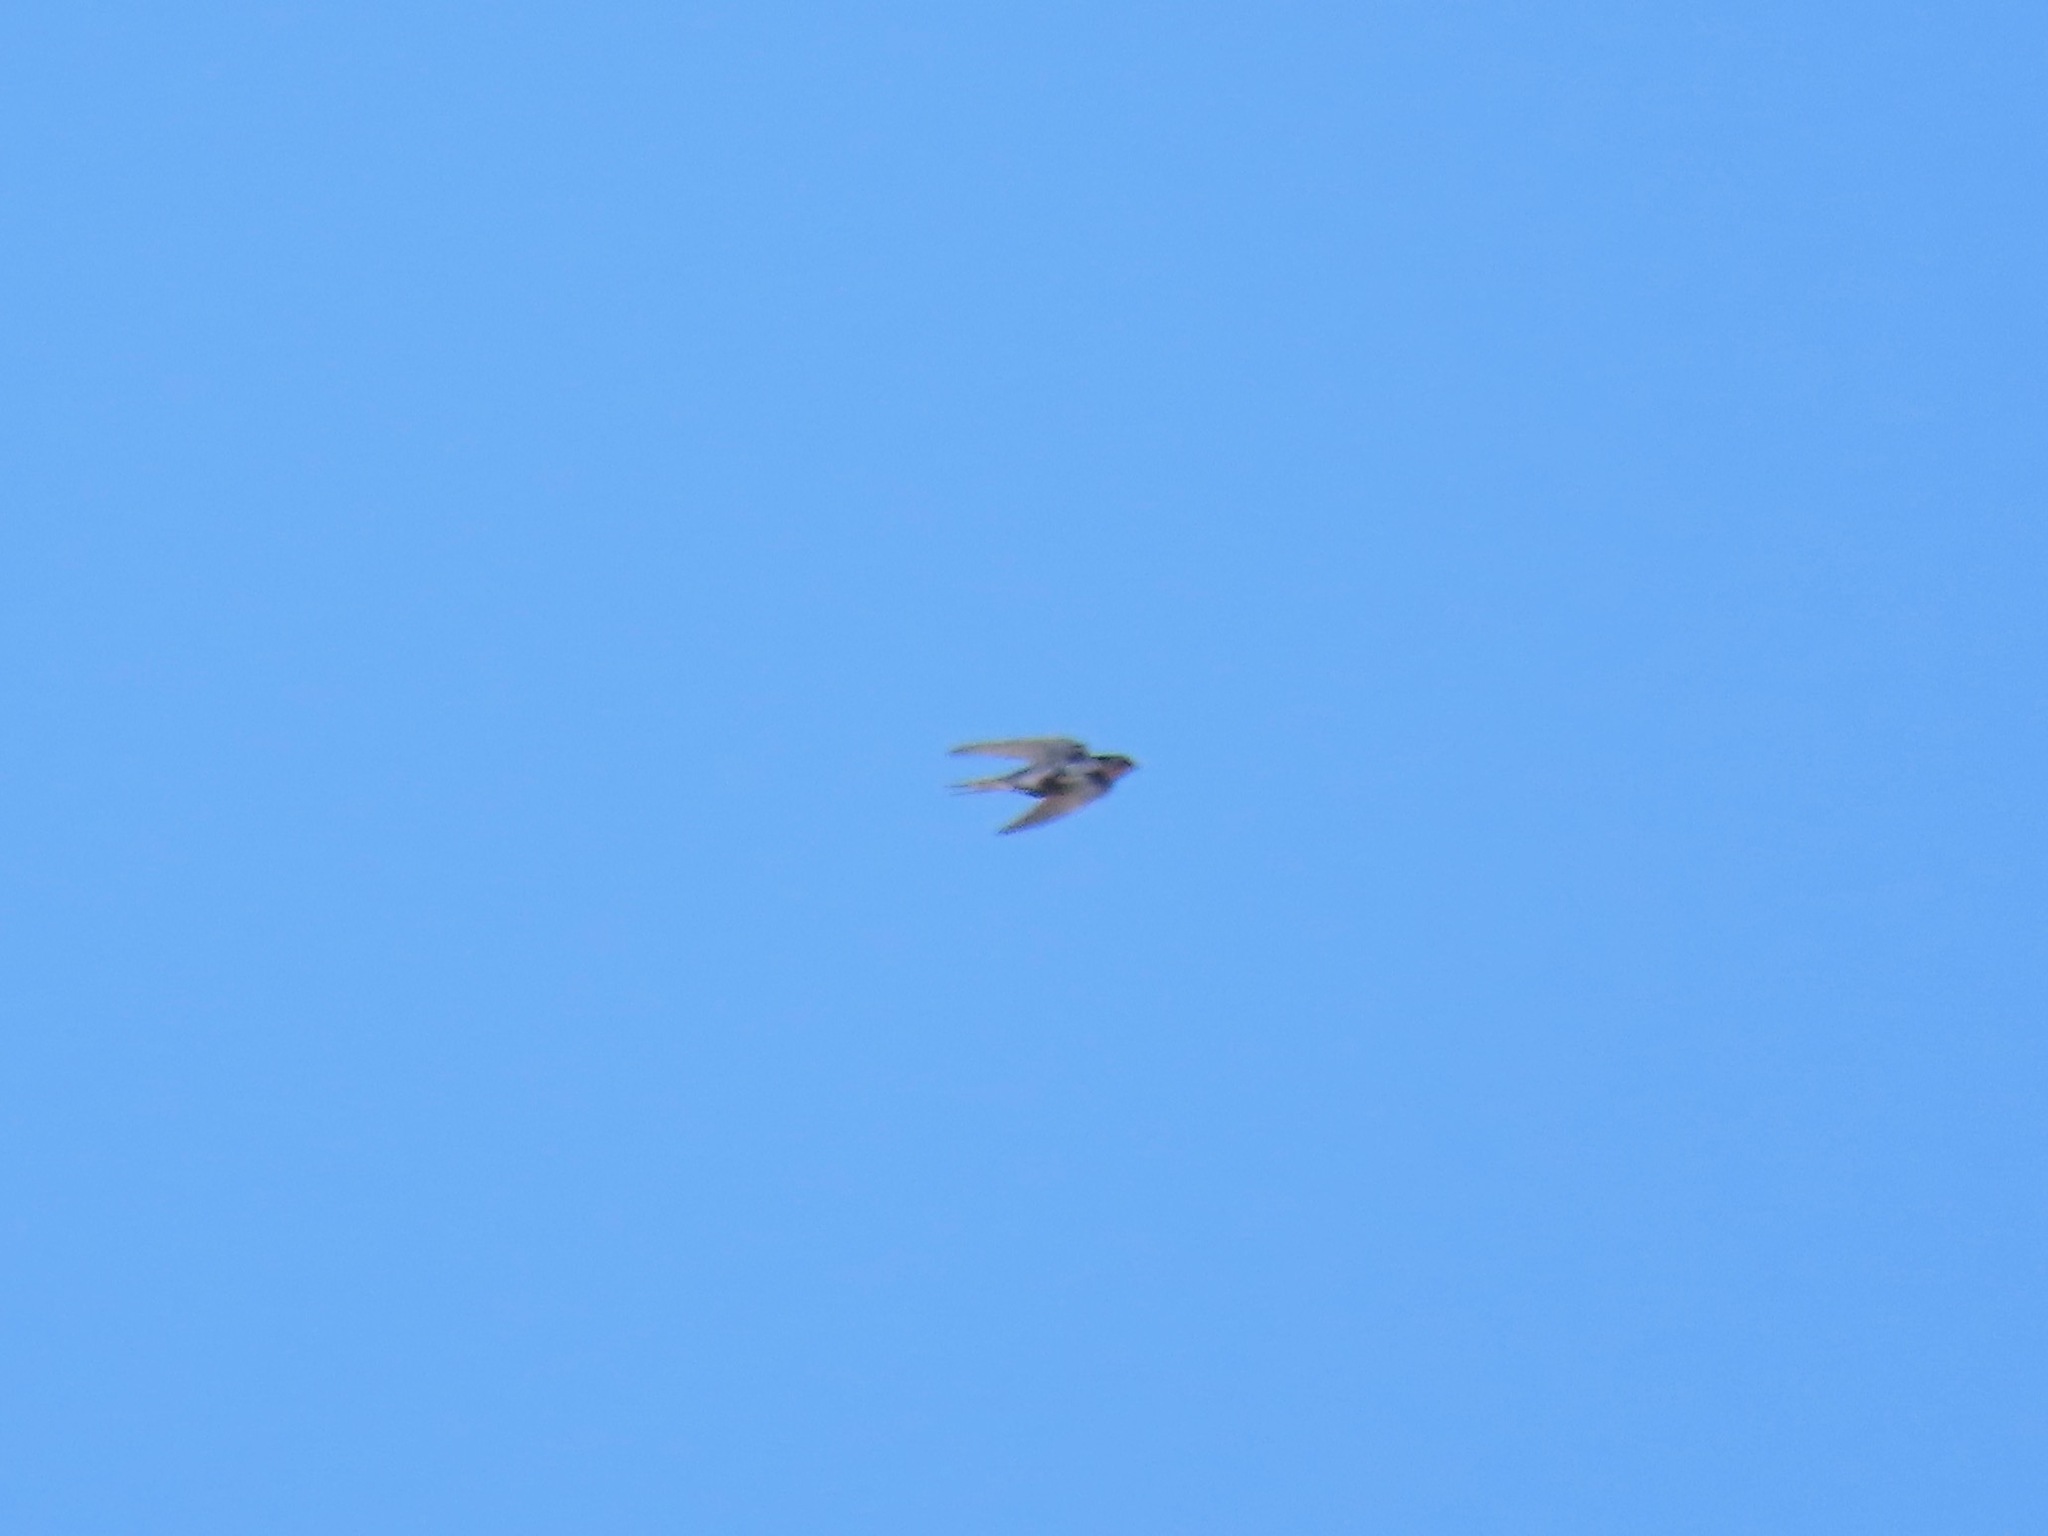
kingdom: Animalia
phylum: Chordata
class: Aves
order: Passeriformes
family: Hirundinidae
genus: Hirundo
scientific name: Hirundo rustica
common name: Barn swallow
